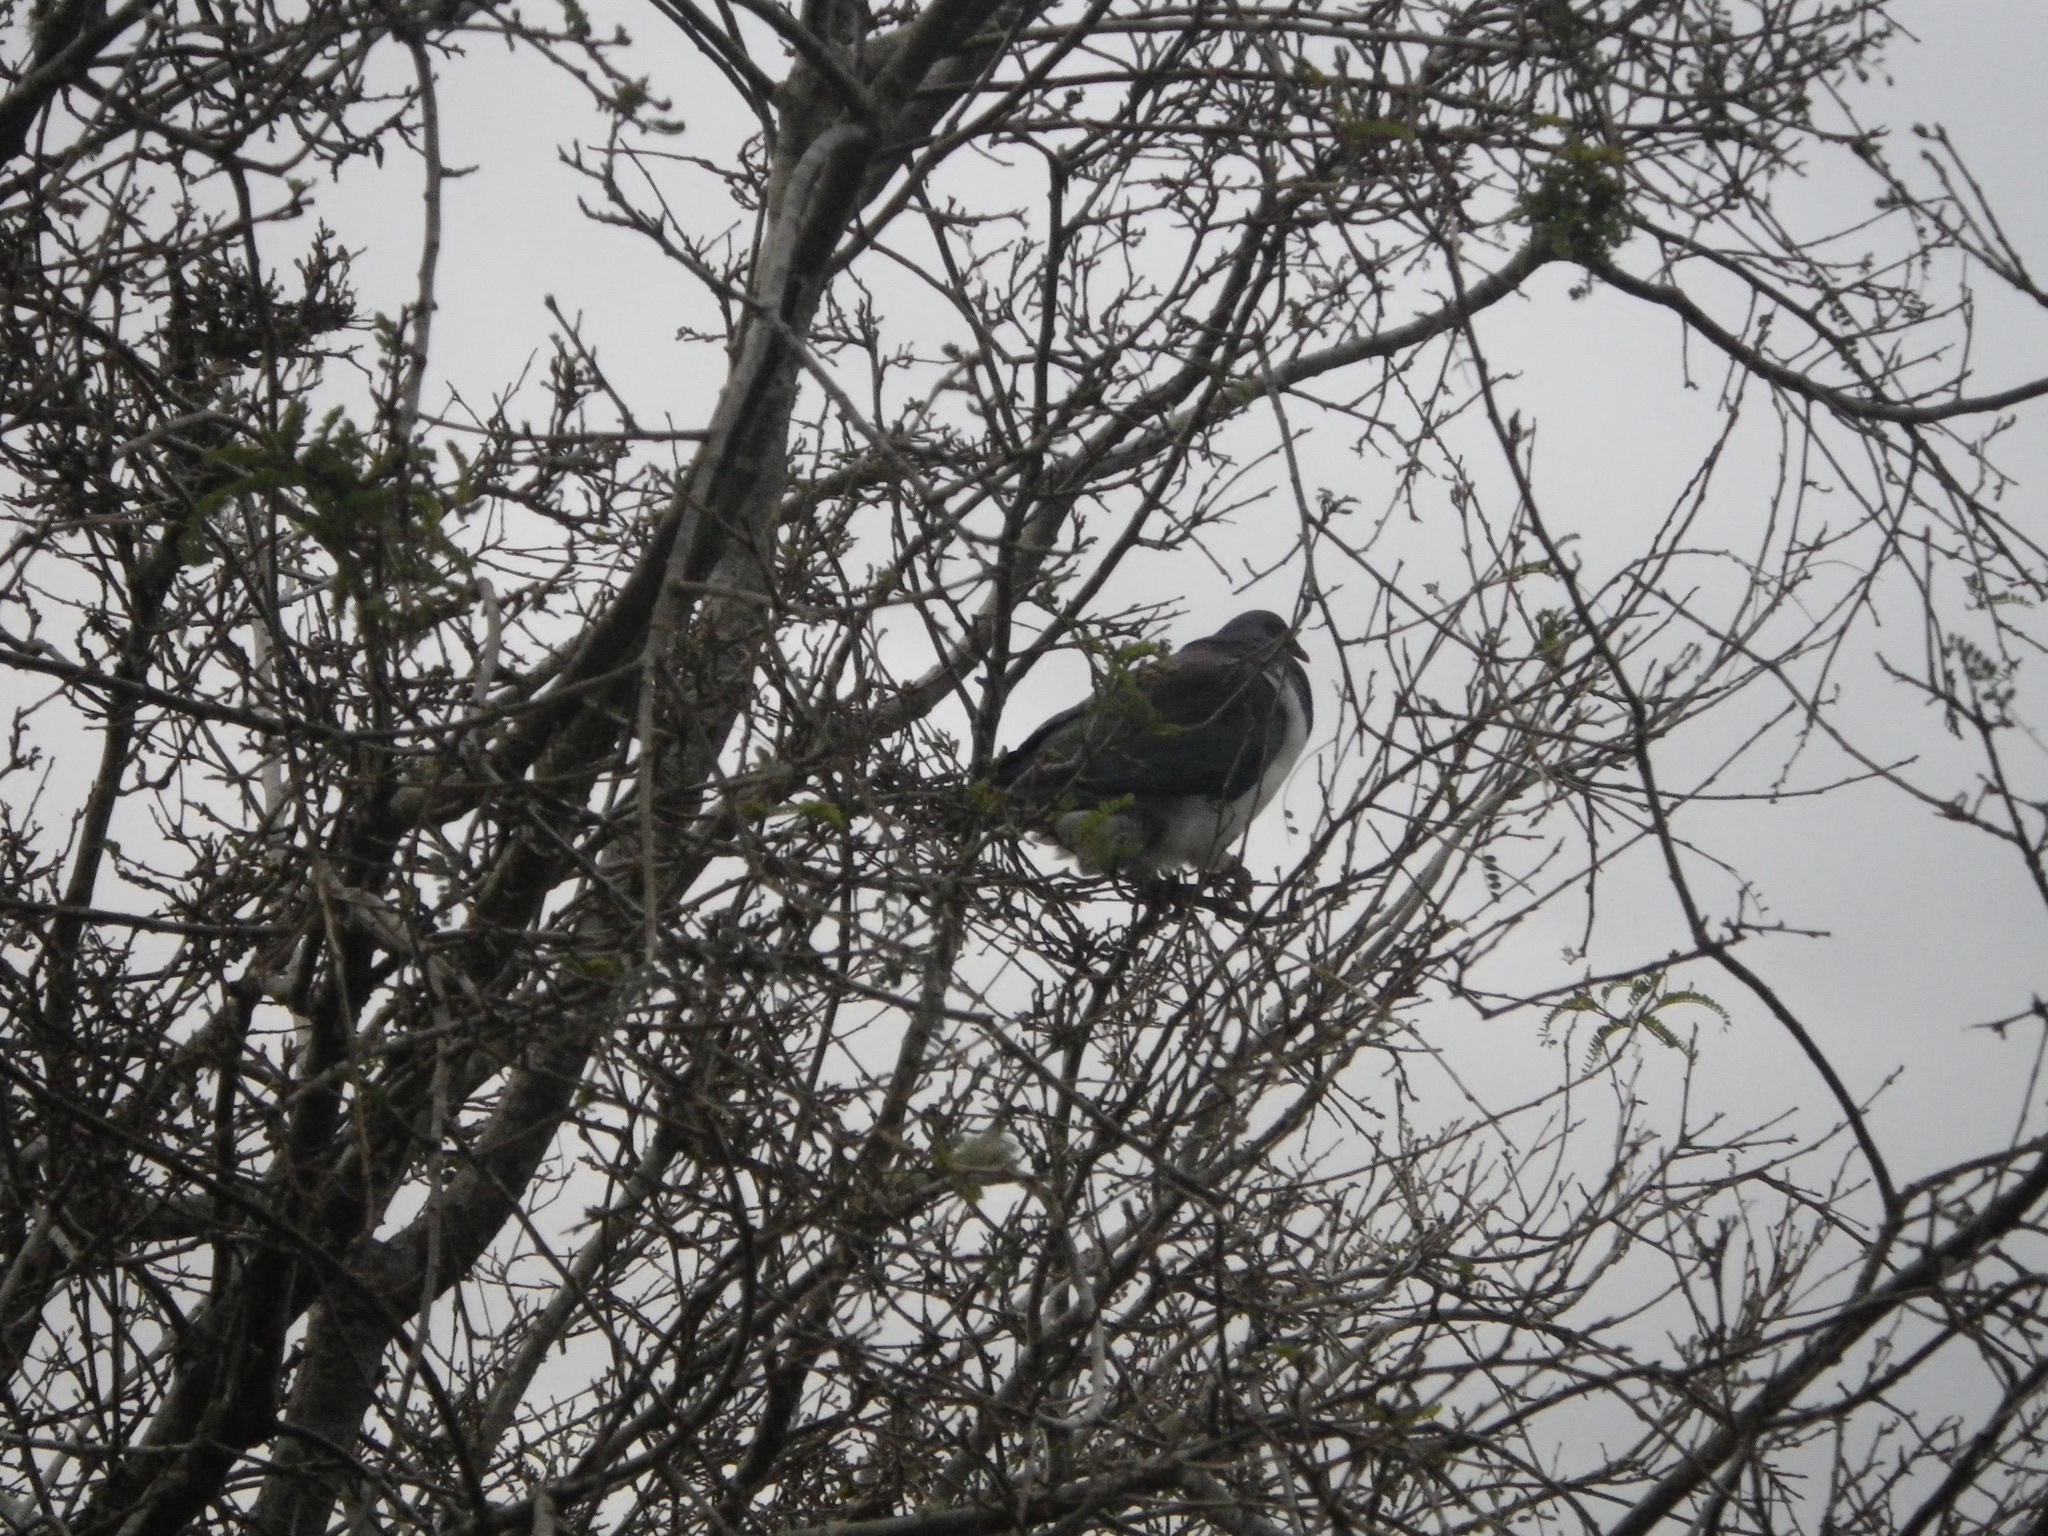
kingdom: Animalia
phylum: Chordata
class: Aves
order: Columbiformes
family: Columbidae
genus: Hemiphaga
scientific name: Hemiphaga novaeseelandiae
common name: New zealand pigeon
